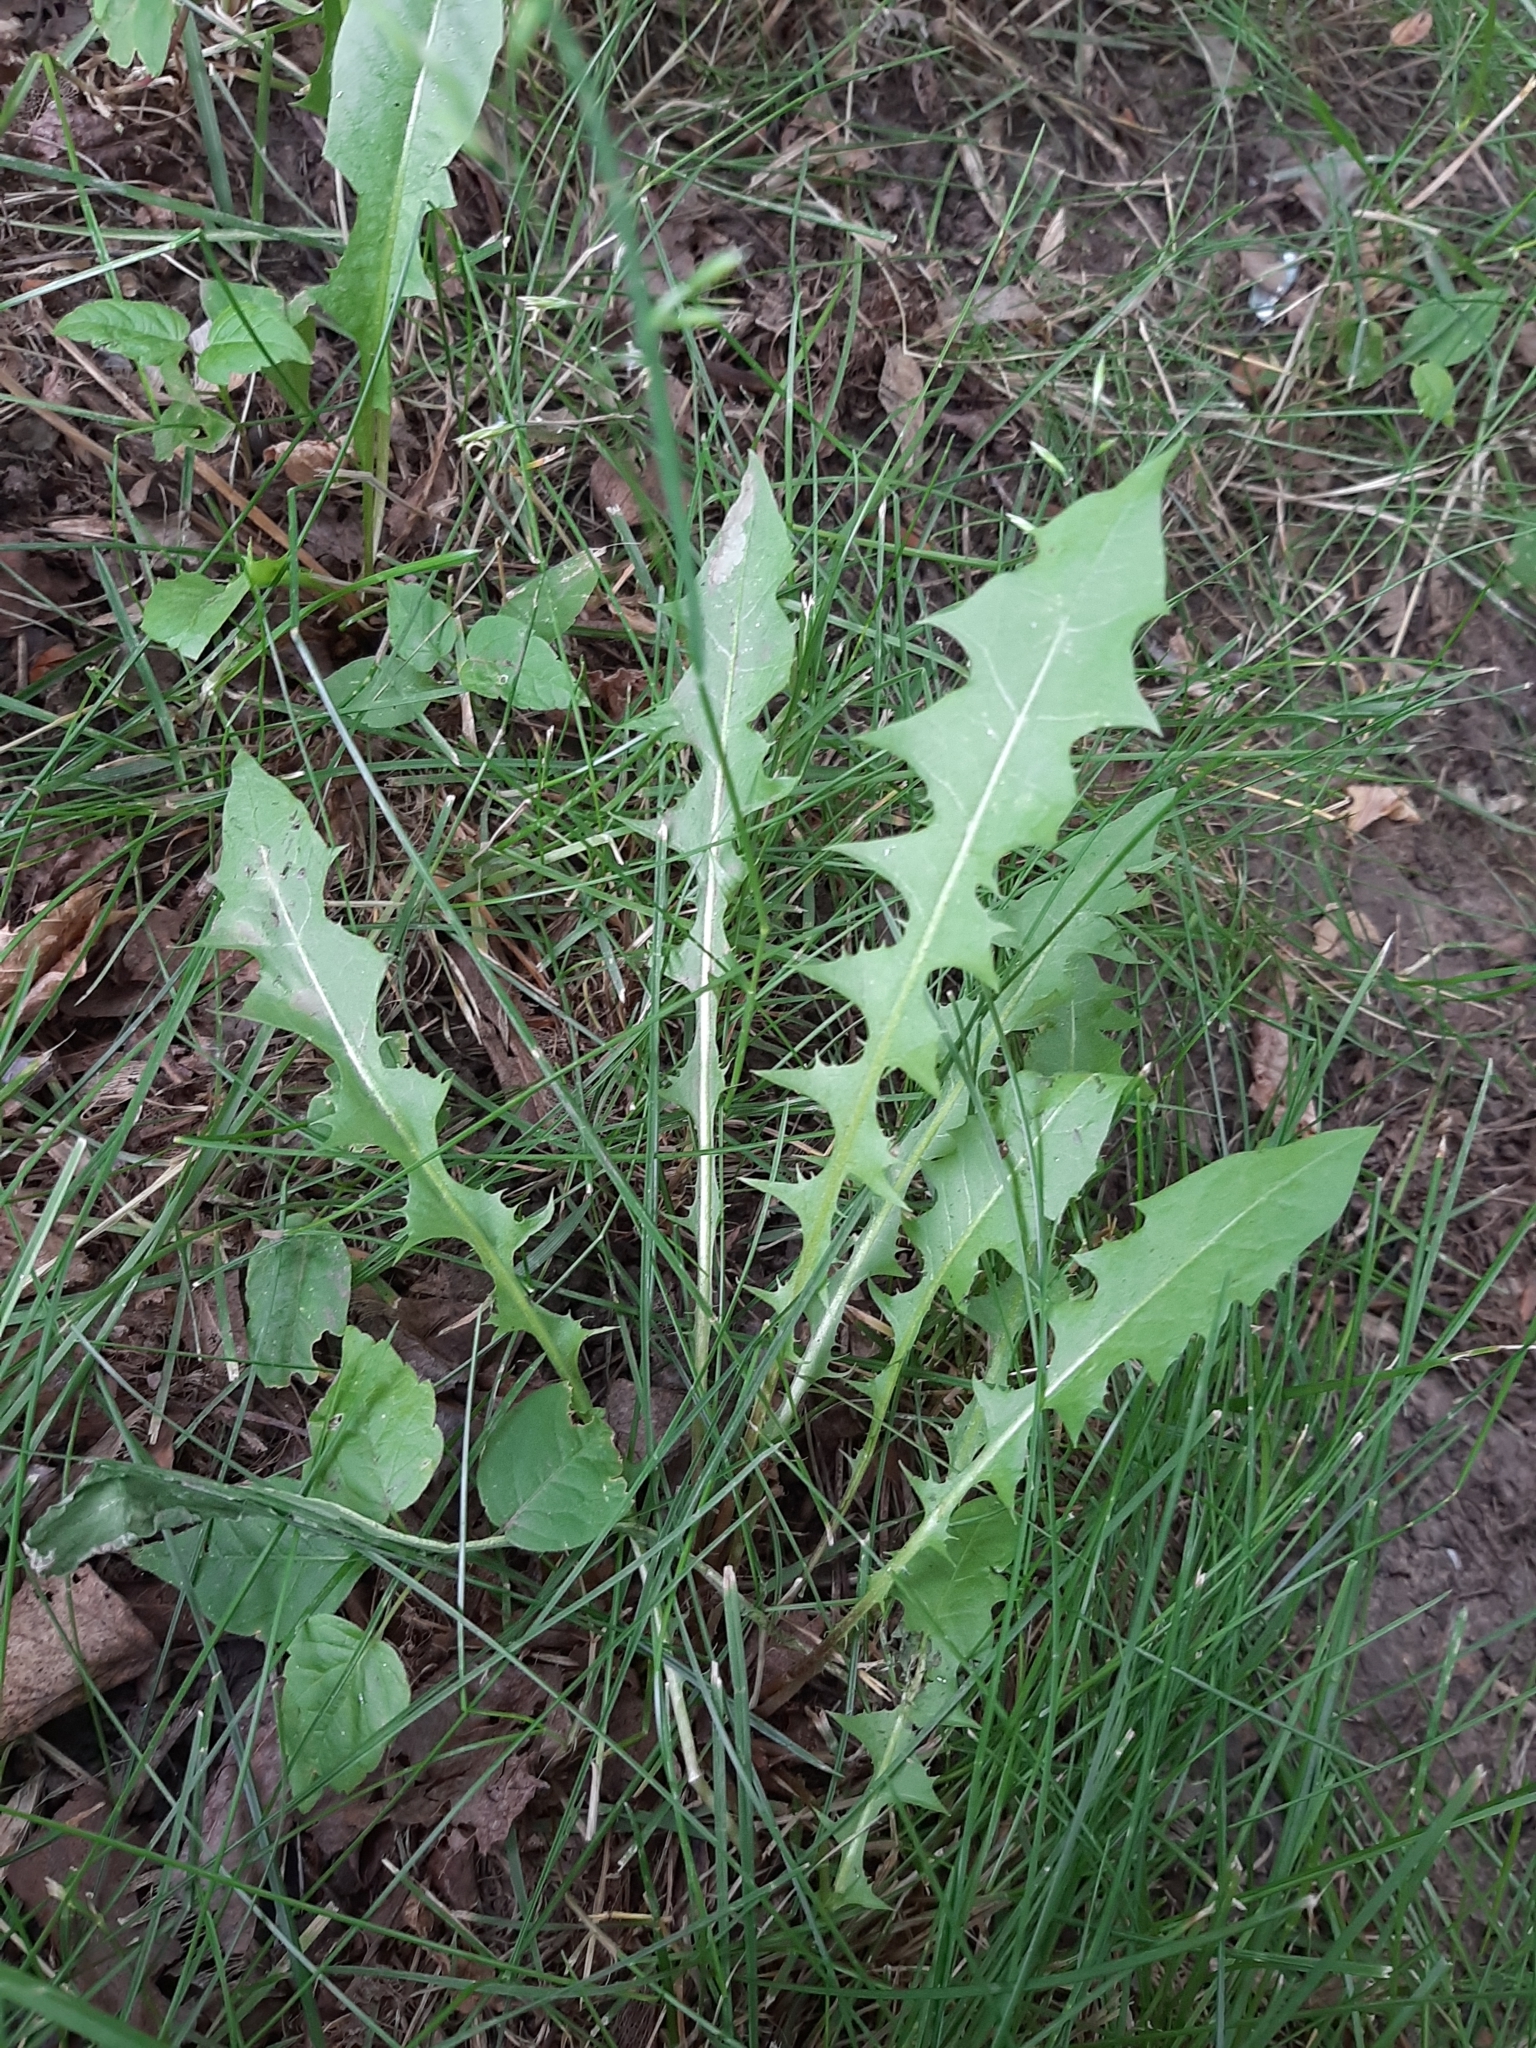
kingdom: Plantae
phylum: Tracheophyta
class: Magnoliopsida
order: Asterales
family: Asteraceae
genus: Taraxacum
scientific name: Taraxacum officinale
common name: Common dandelion
